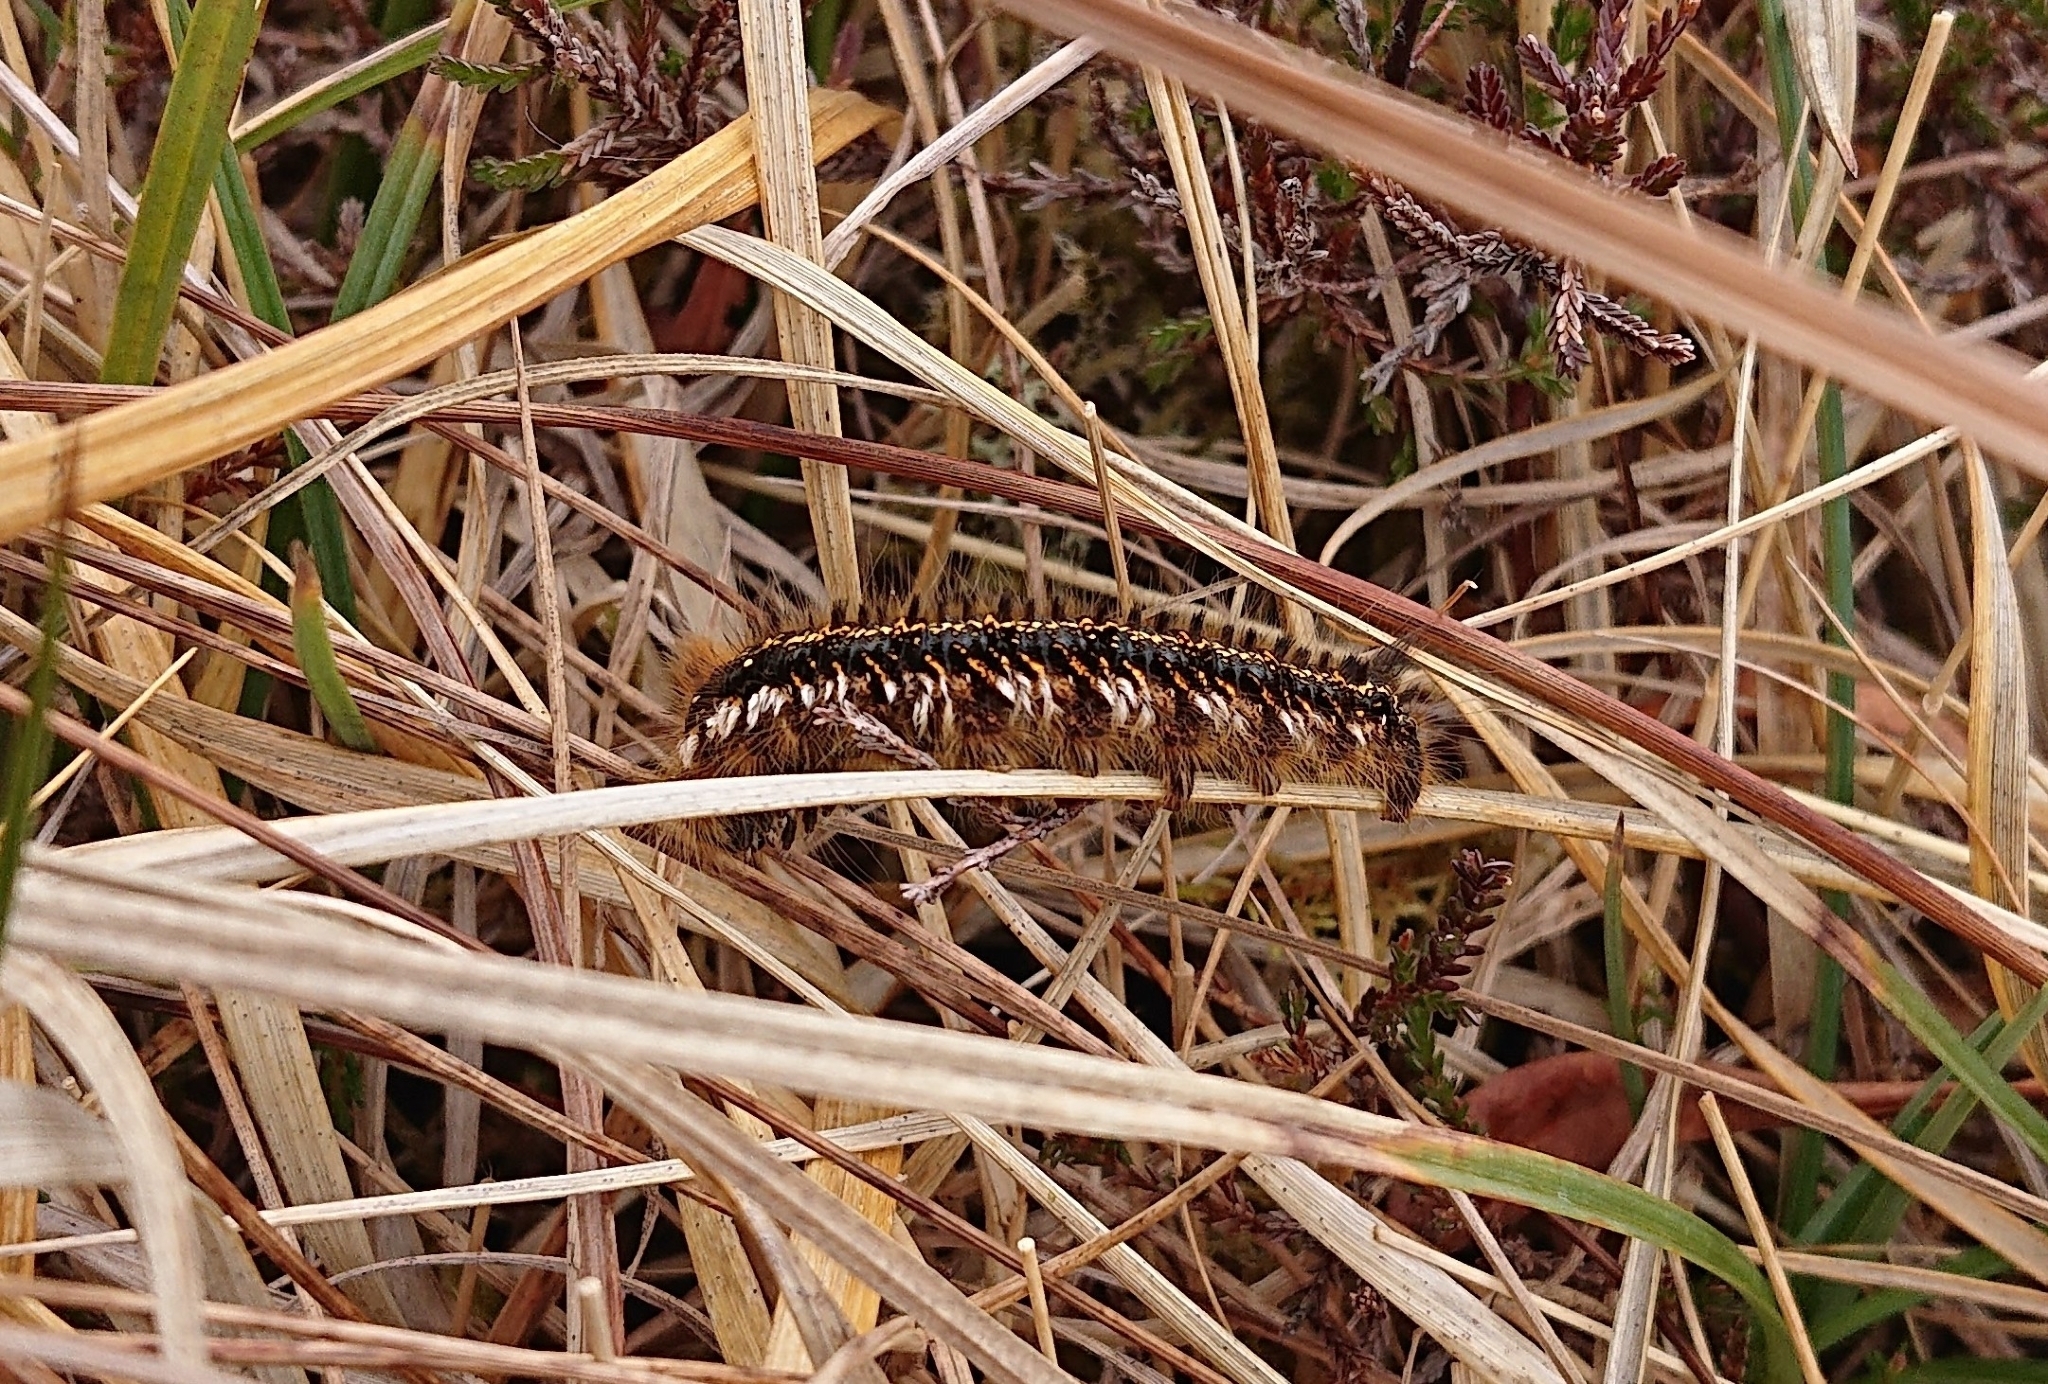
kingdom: Animalia
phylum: Arthropoda
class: Insecta
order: Lepidoptera
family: Lasiocampidae
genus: Euthrix
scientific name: Euthrix potatoria
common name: Drinker
